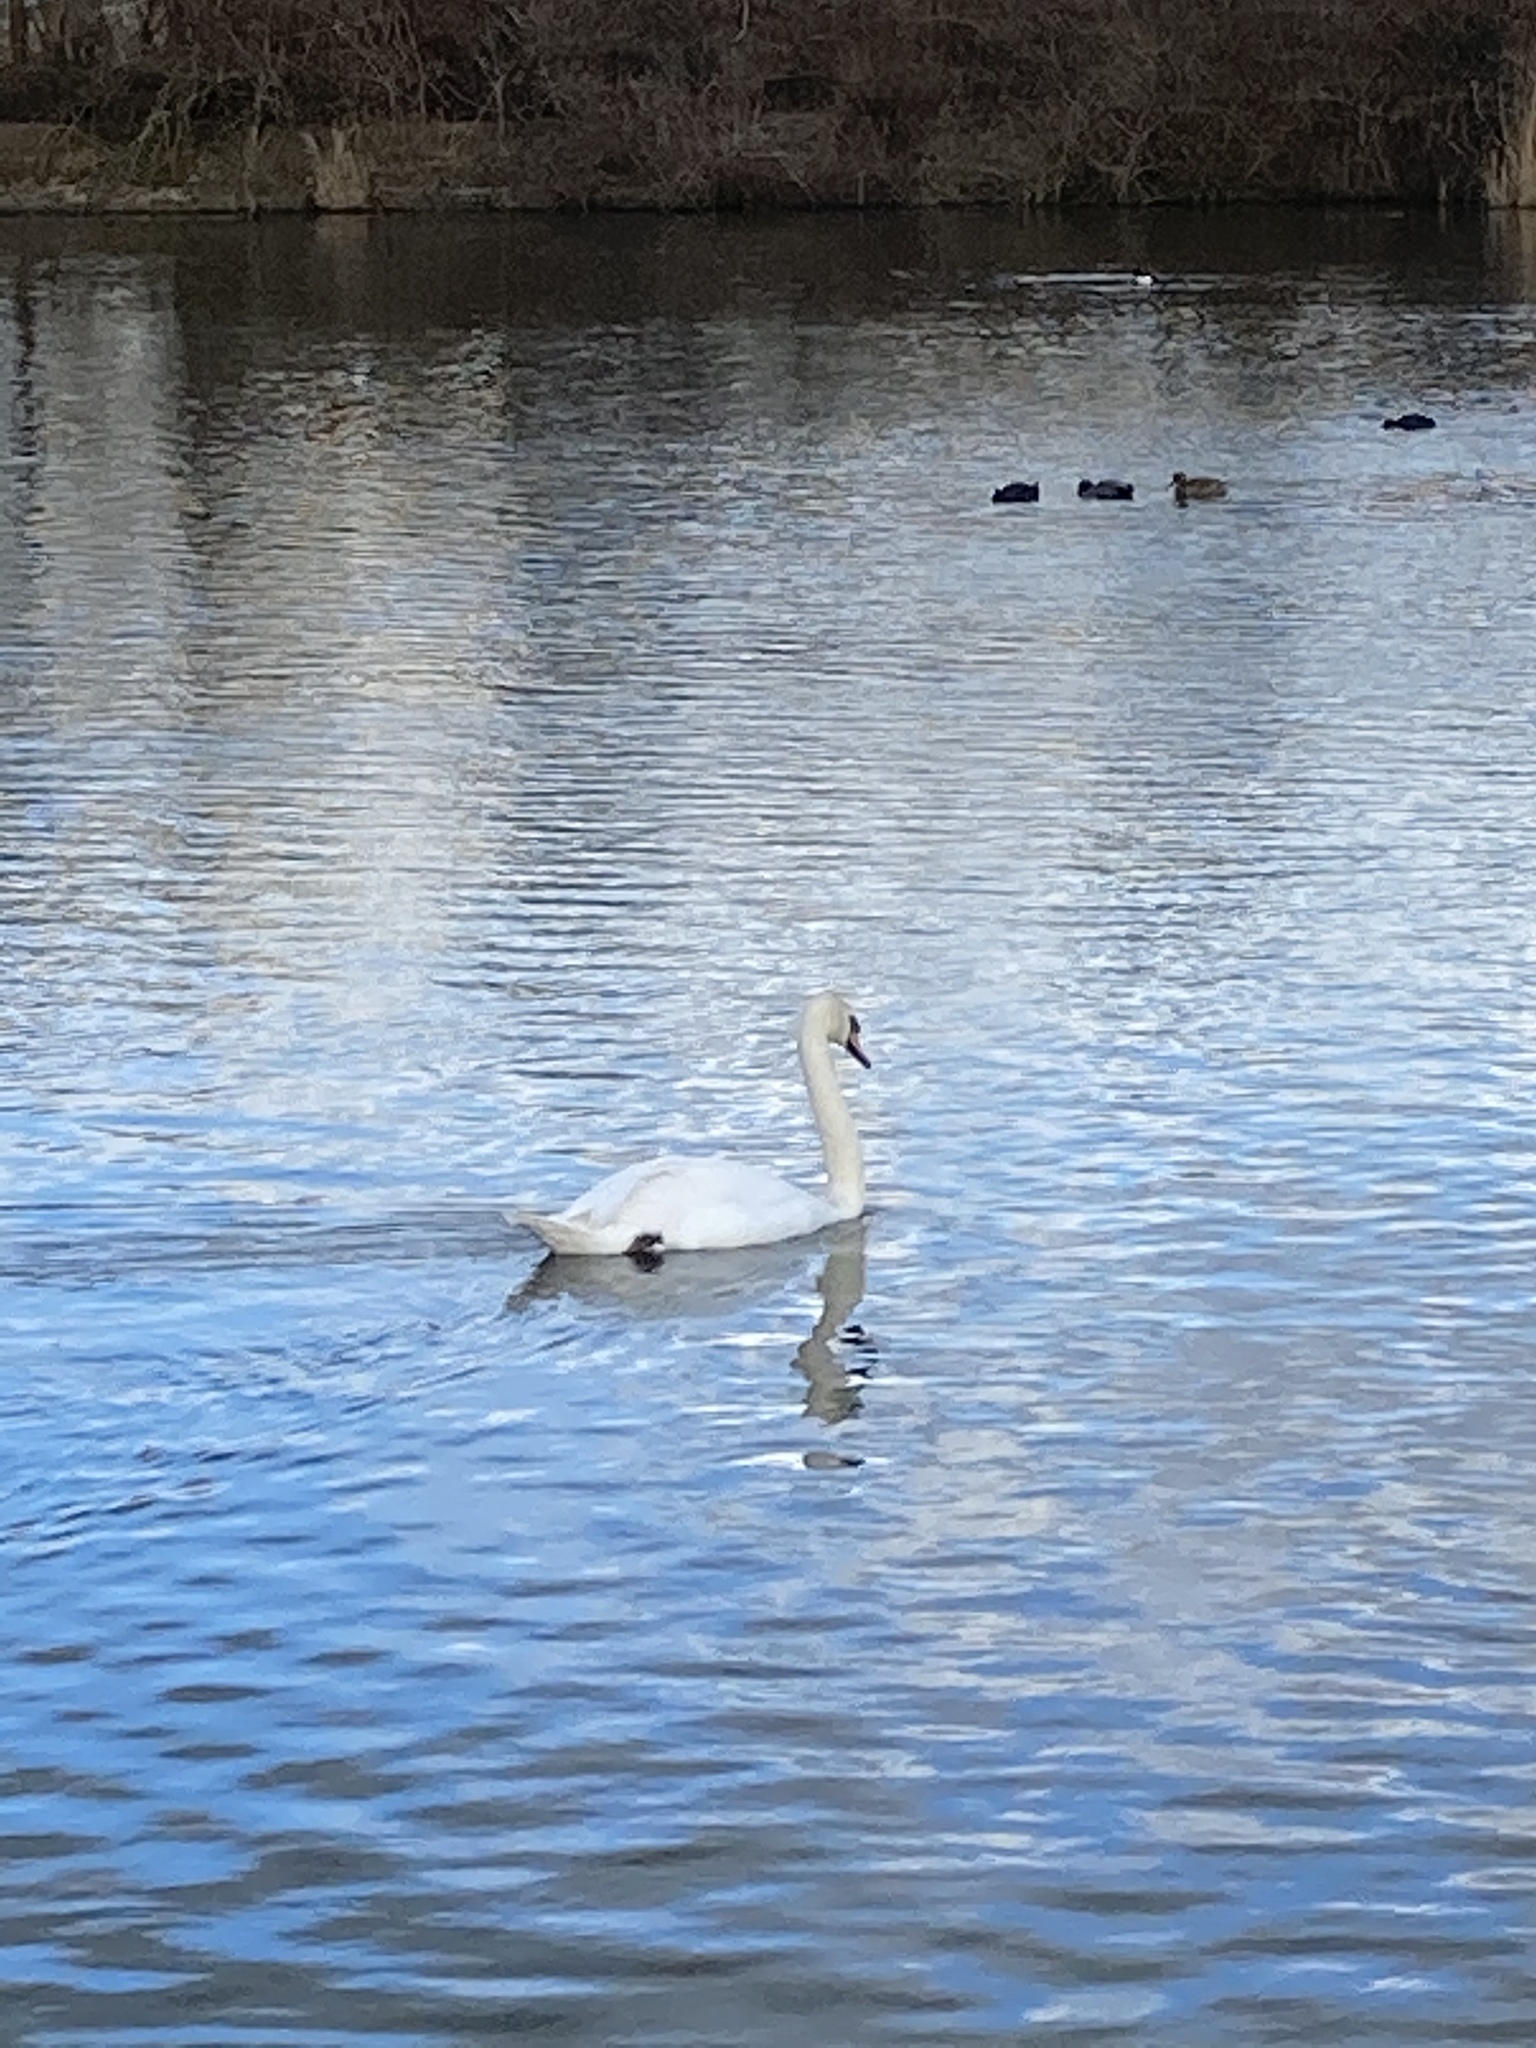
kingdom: Animalia
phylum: Chordata
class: Aves
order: Anseriformes
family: Anatidae
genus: Cygnus
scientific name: Cygnus olor
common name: Mute swan
